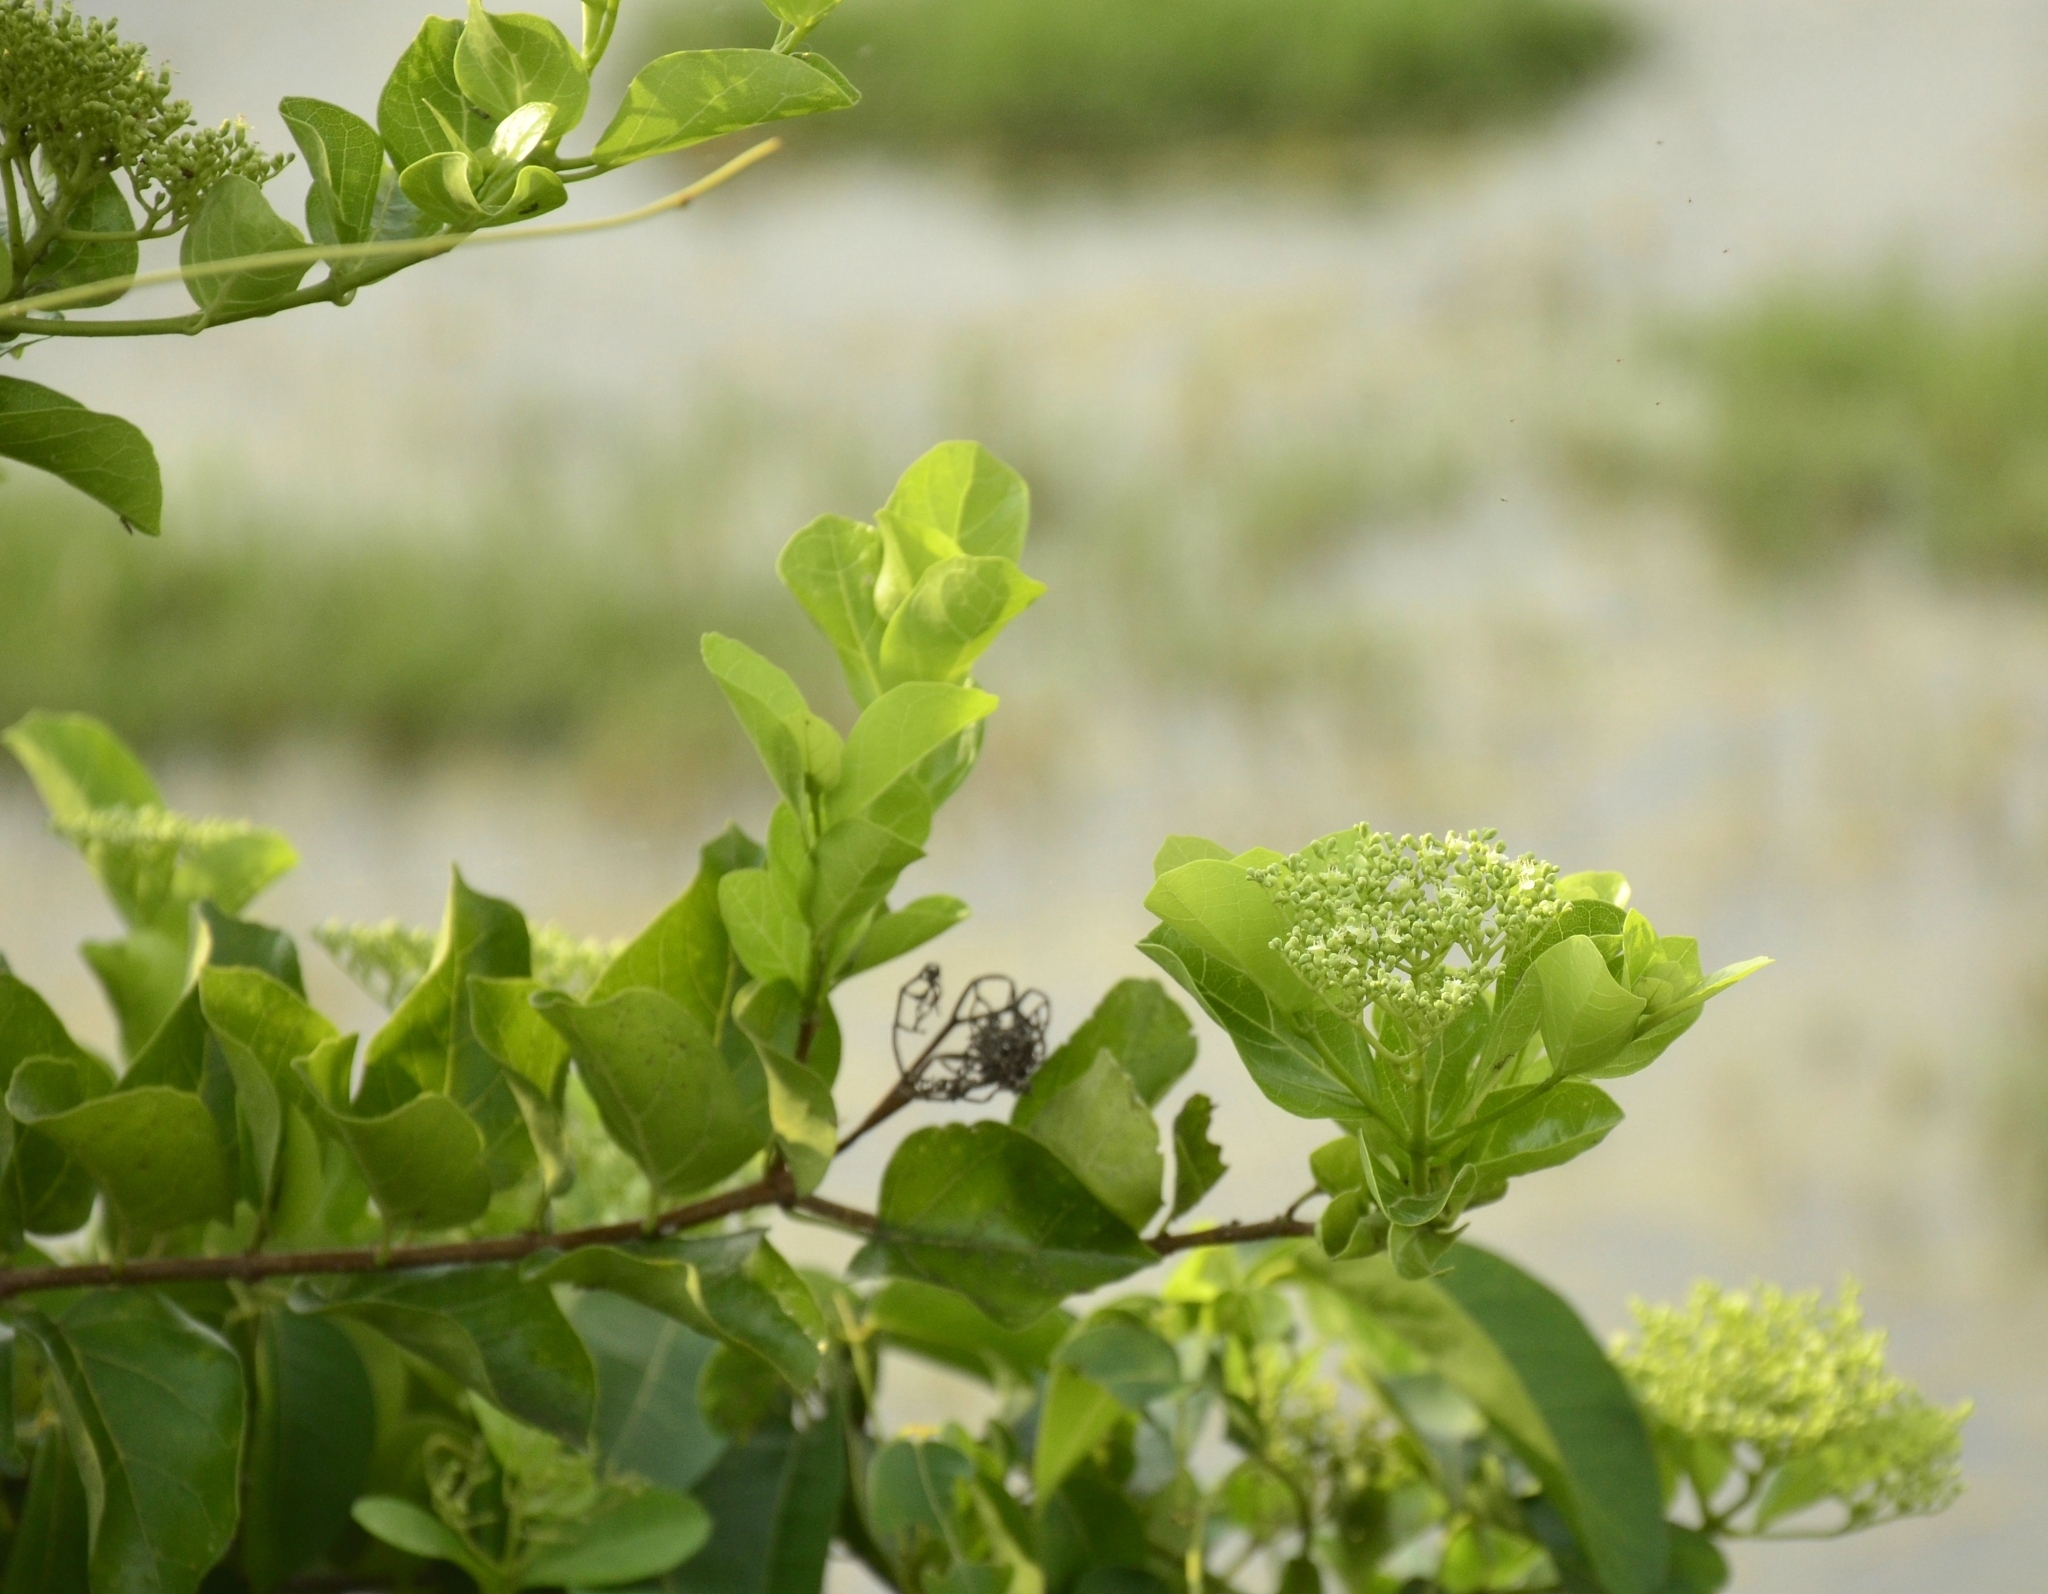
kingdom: Plantae
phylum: Tracheophyta
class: Magnoliopsida
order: Lamiales
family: Lamiaceae
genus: Premna
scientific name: Premna serratifolia
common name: Bastard guelder
